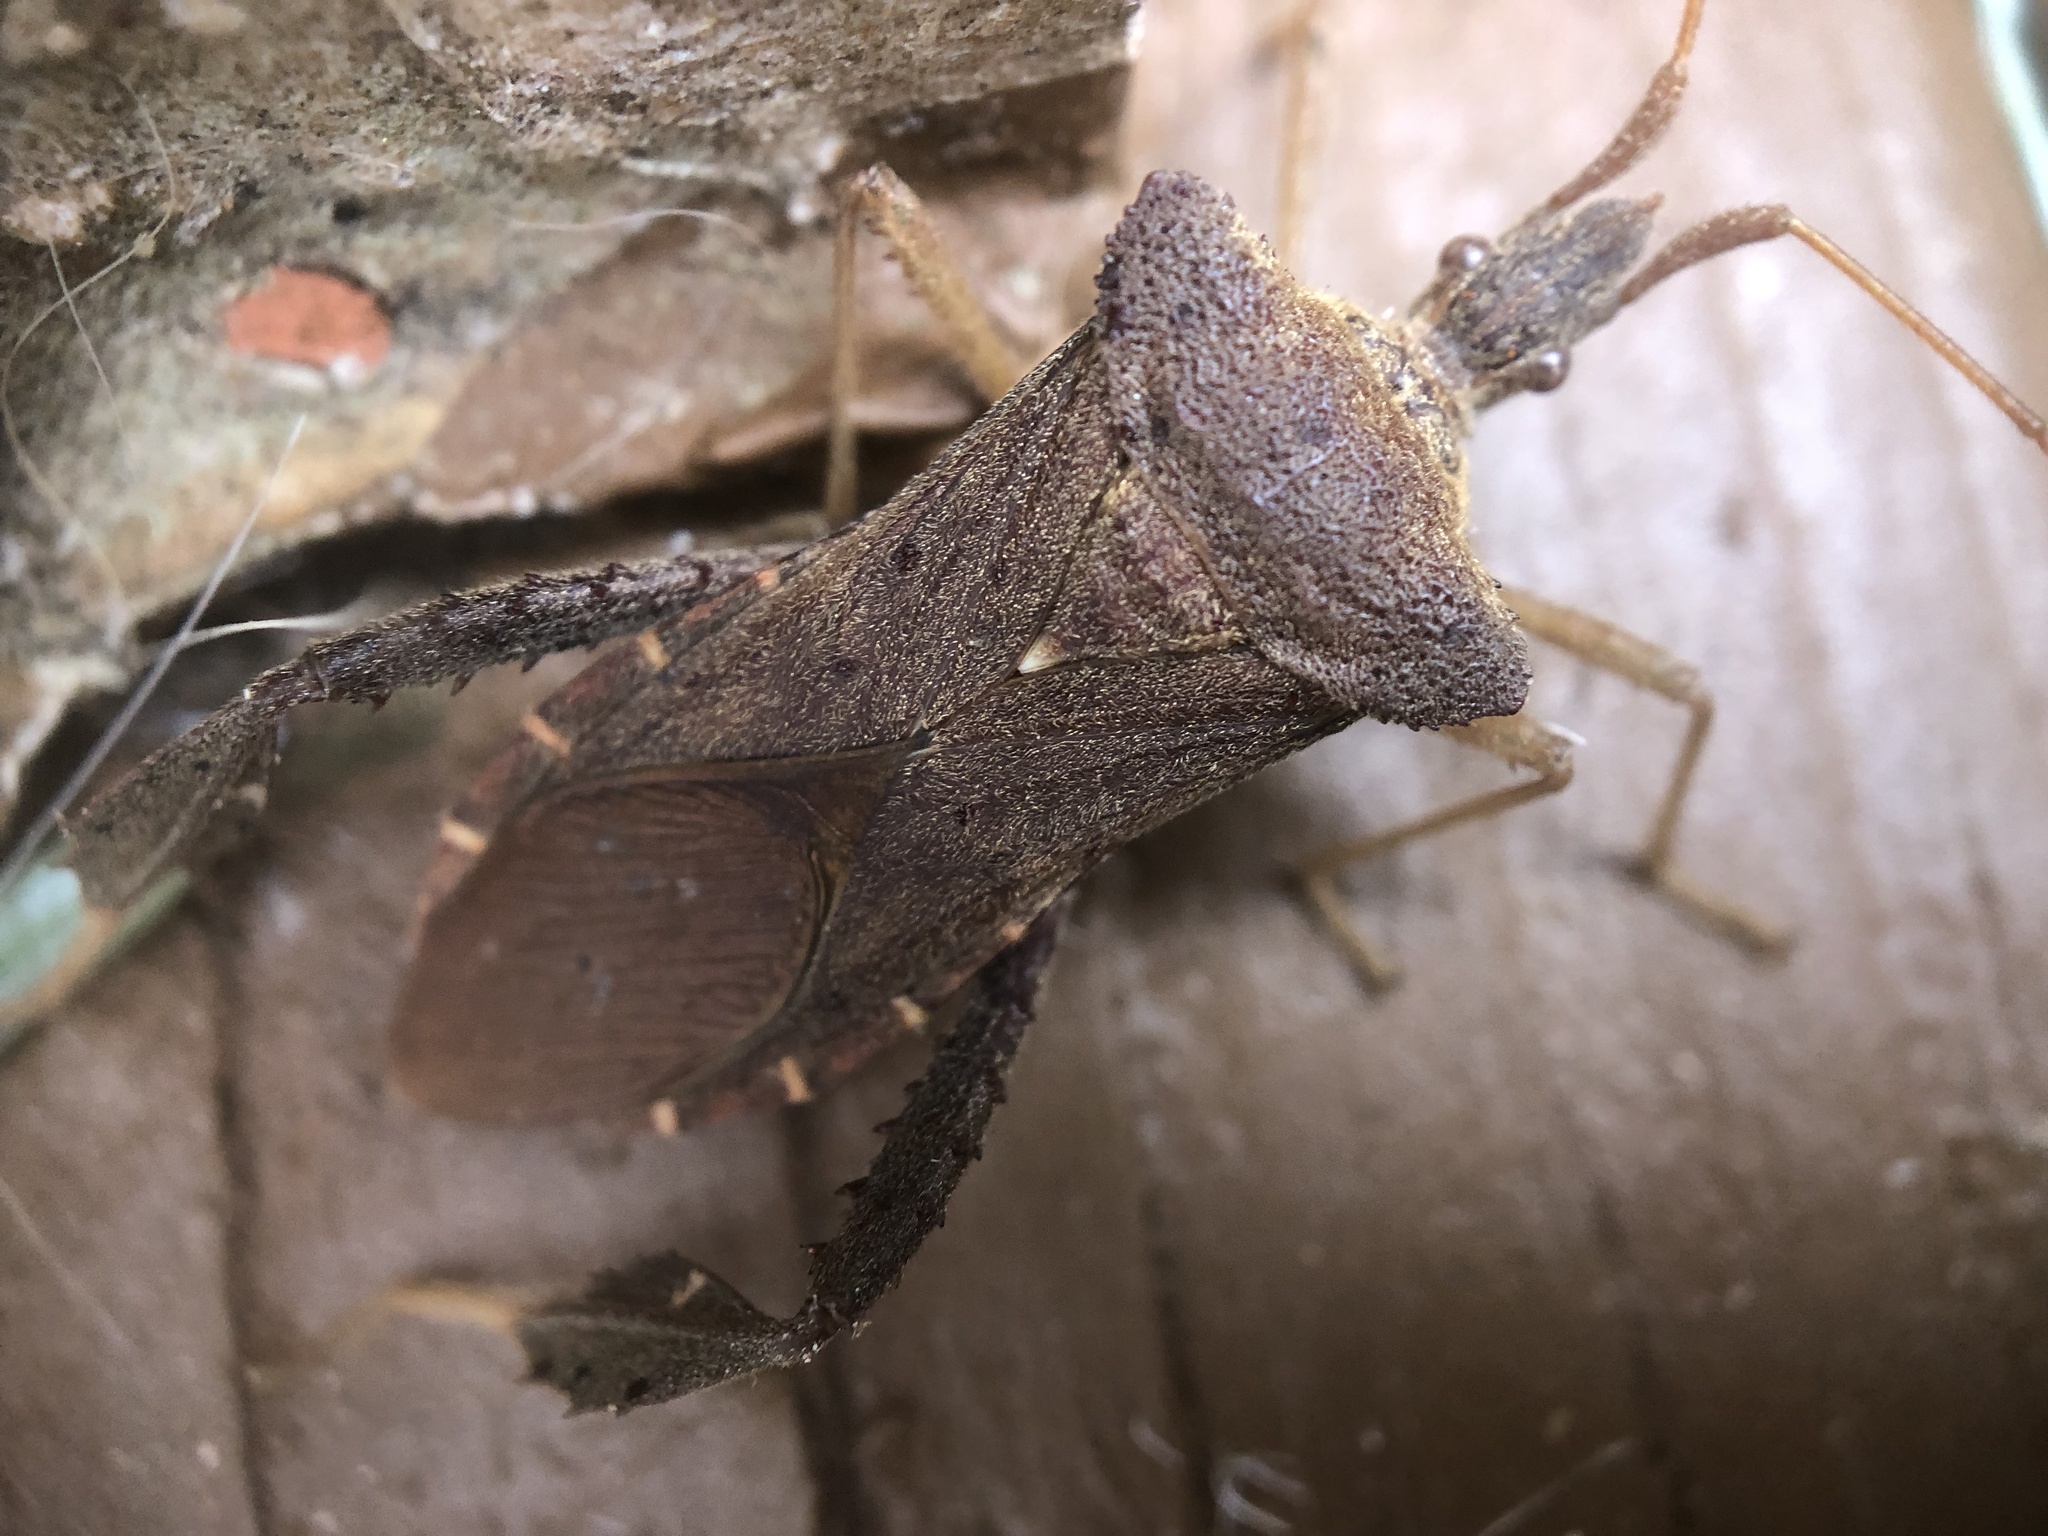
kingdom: Animalia
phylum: Arthropoda
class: Insecta
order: Hemiptera
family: Coreidae
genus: Leptoglossus
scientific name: Leptoglossus fulvicornis
